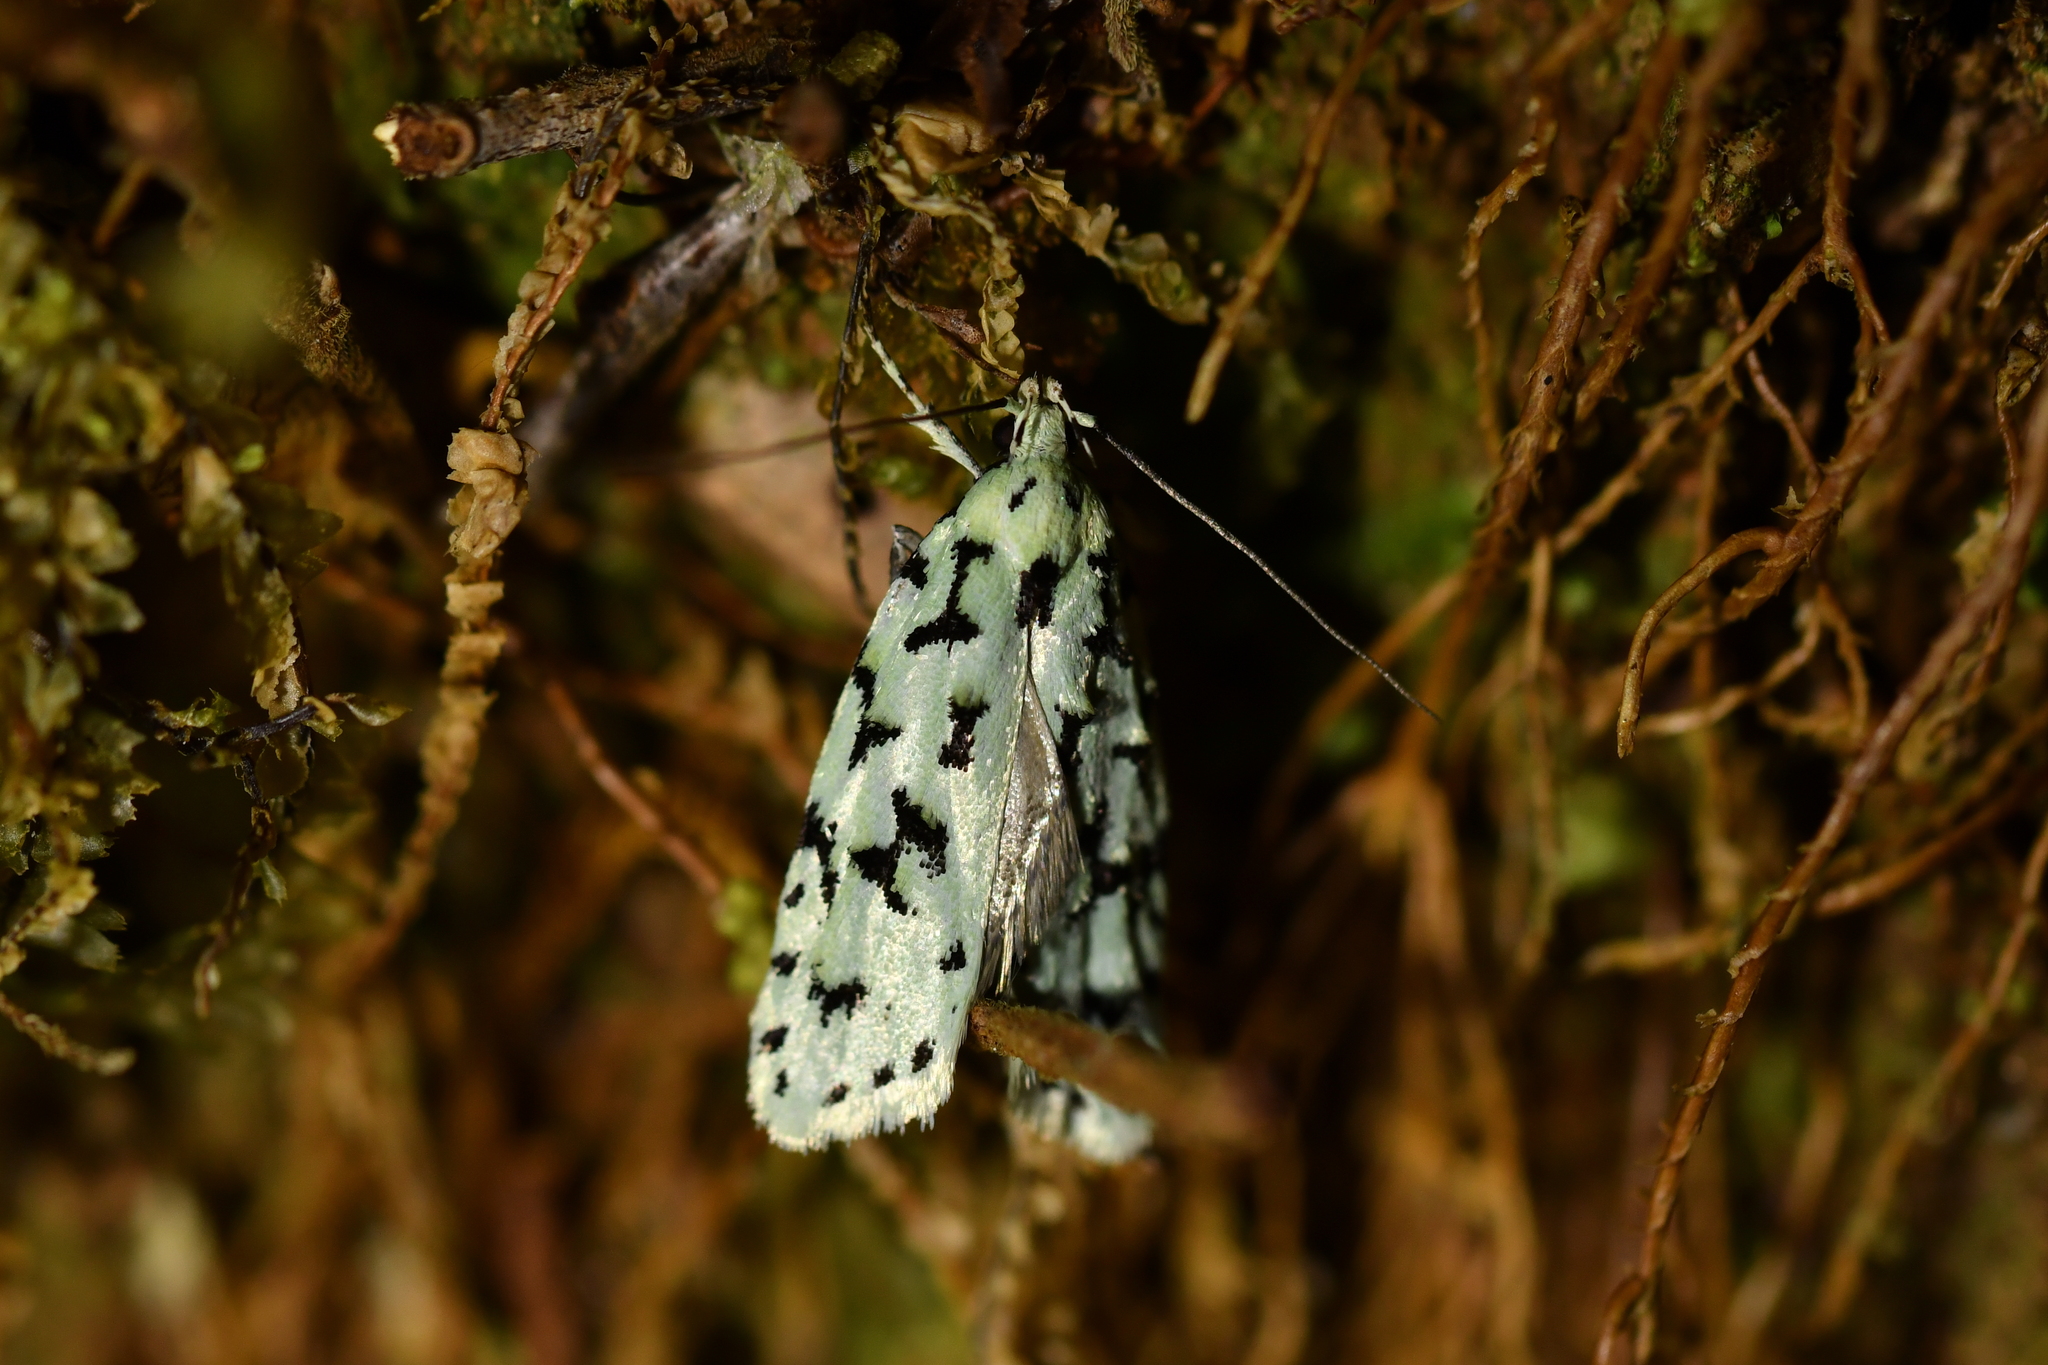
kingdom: Animalia
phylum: Arthropoda
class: Insecta
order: Lepidoptera
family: Oecophoridae
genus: Izatha
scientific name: Izatha huttoni
